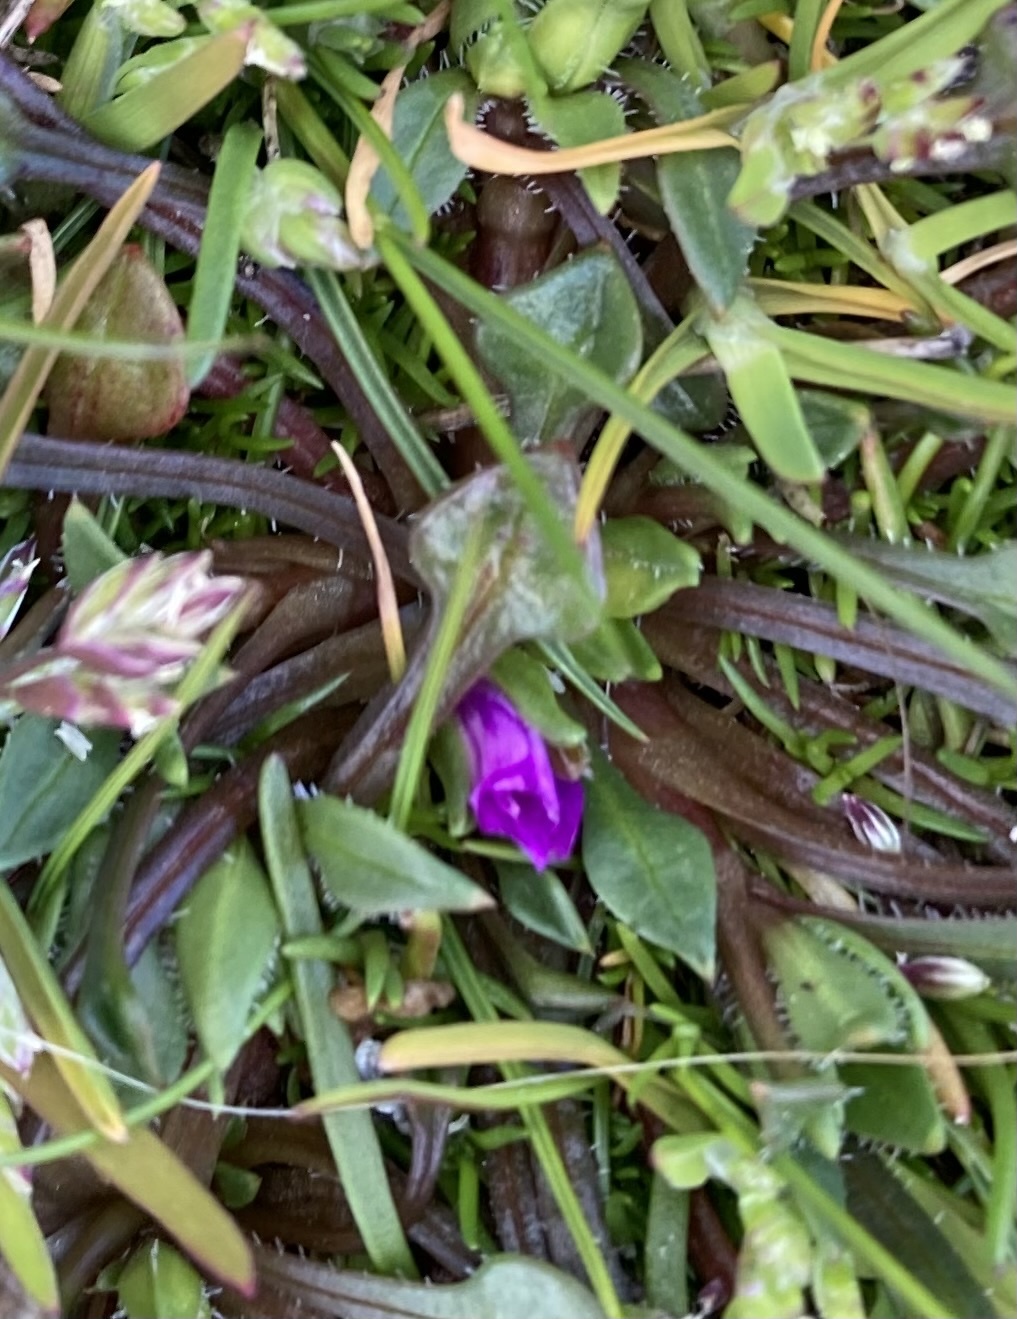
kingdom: Plantae
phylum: Tracheophyta
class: Magnoliopsida
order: Caryophyllales
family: Montiaceae
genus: Calandrinia
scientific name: Calandrinia menziesii
